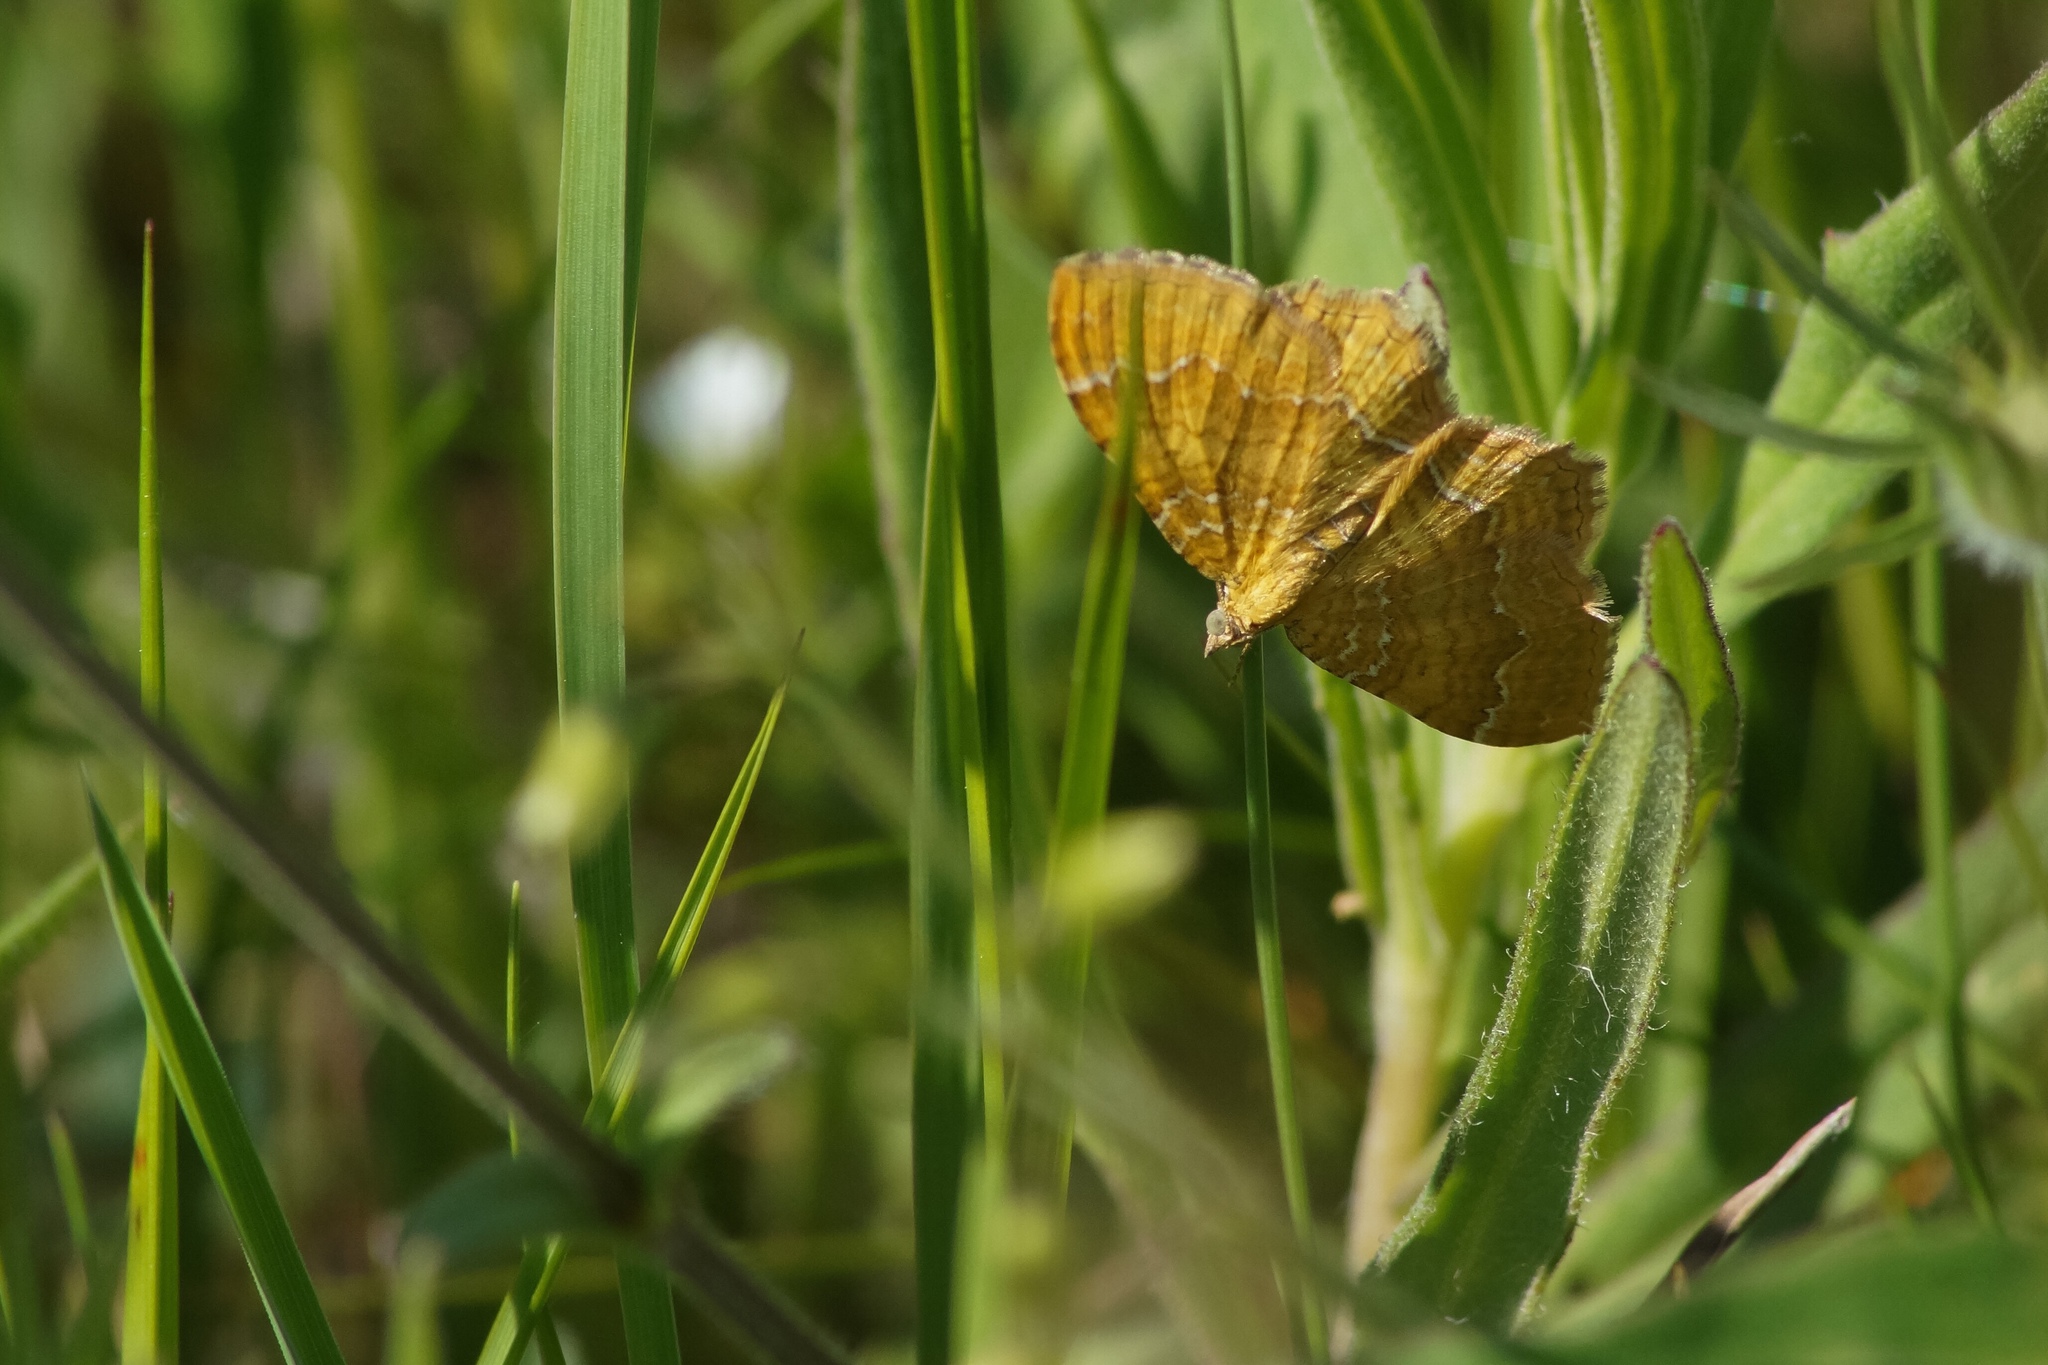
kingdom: Animalia
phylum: Arthropoda
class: Insecta
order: Lepidoptera
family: Geometridae
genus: Camptogramma
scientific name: Camptogramma bilineata
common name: Yellow shell
